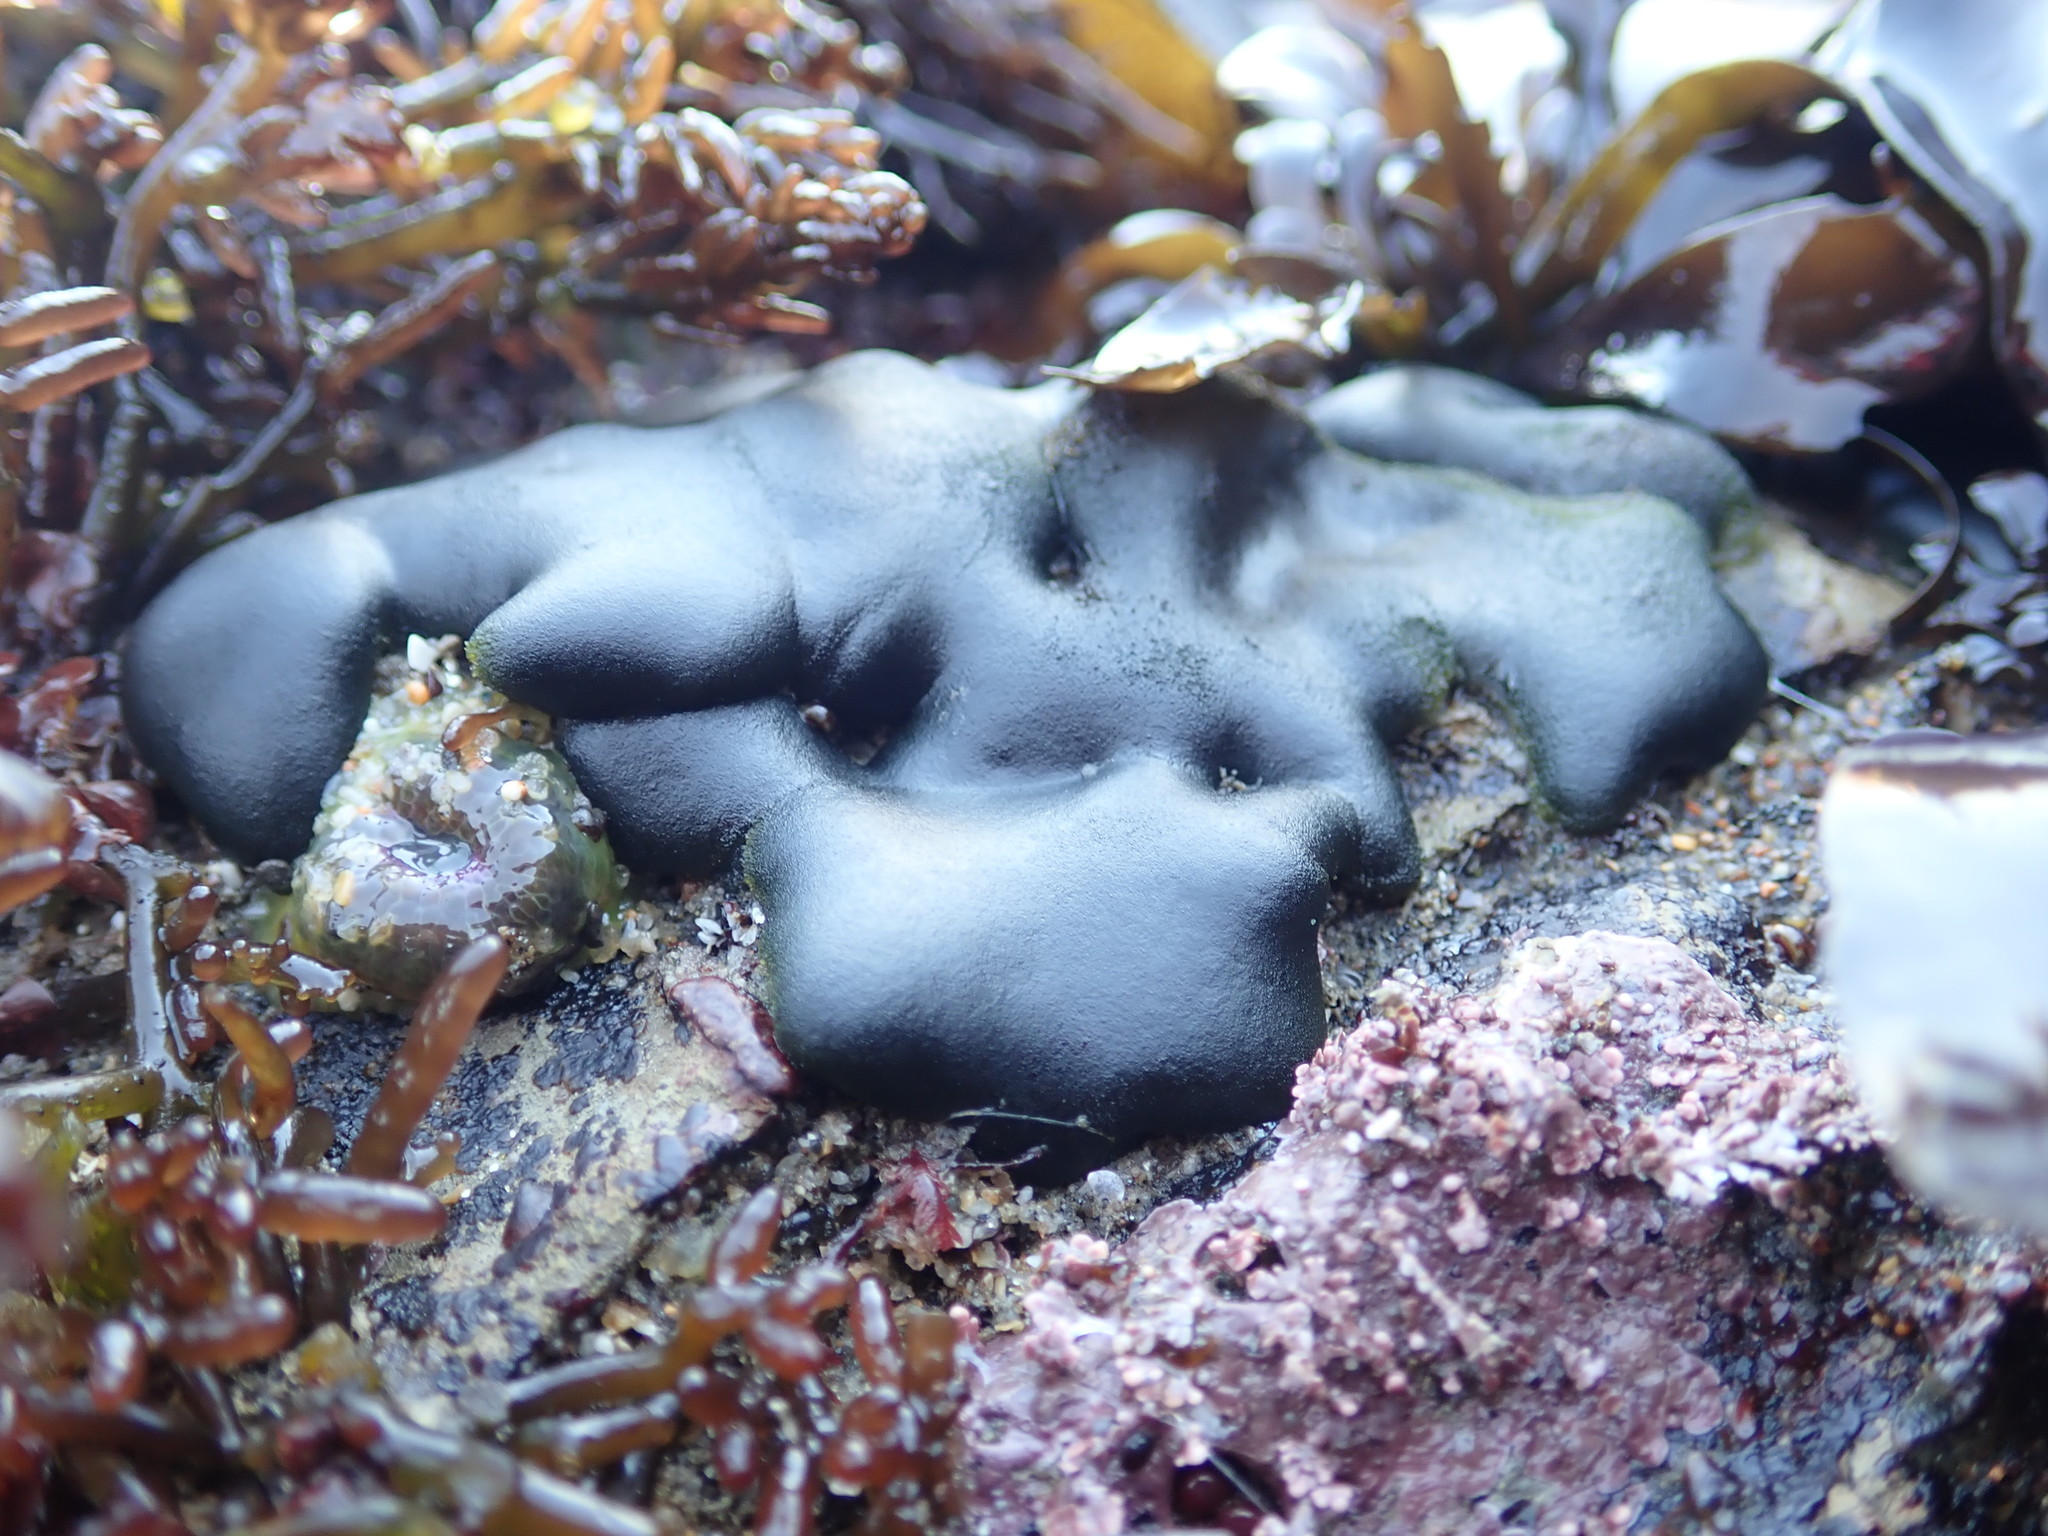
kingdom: Plantae
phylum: Chlorophyta
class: Ulvophyceae
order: Bryopsidales
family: Codiaceae
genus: Codium
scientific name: Codium setchellii
